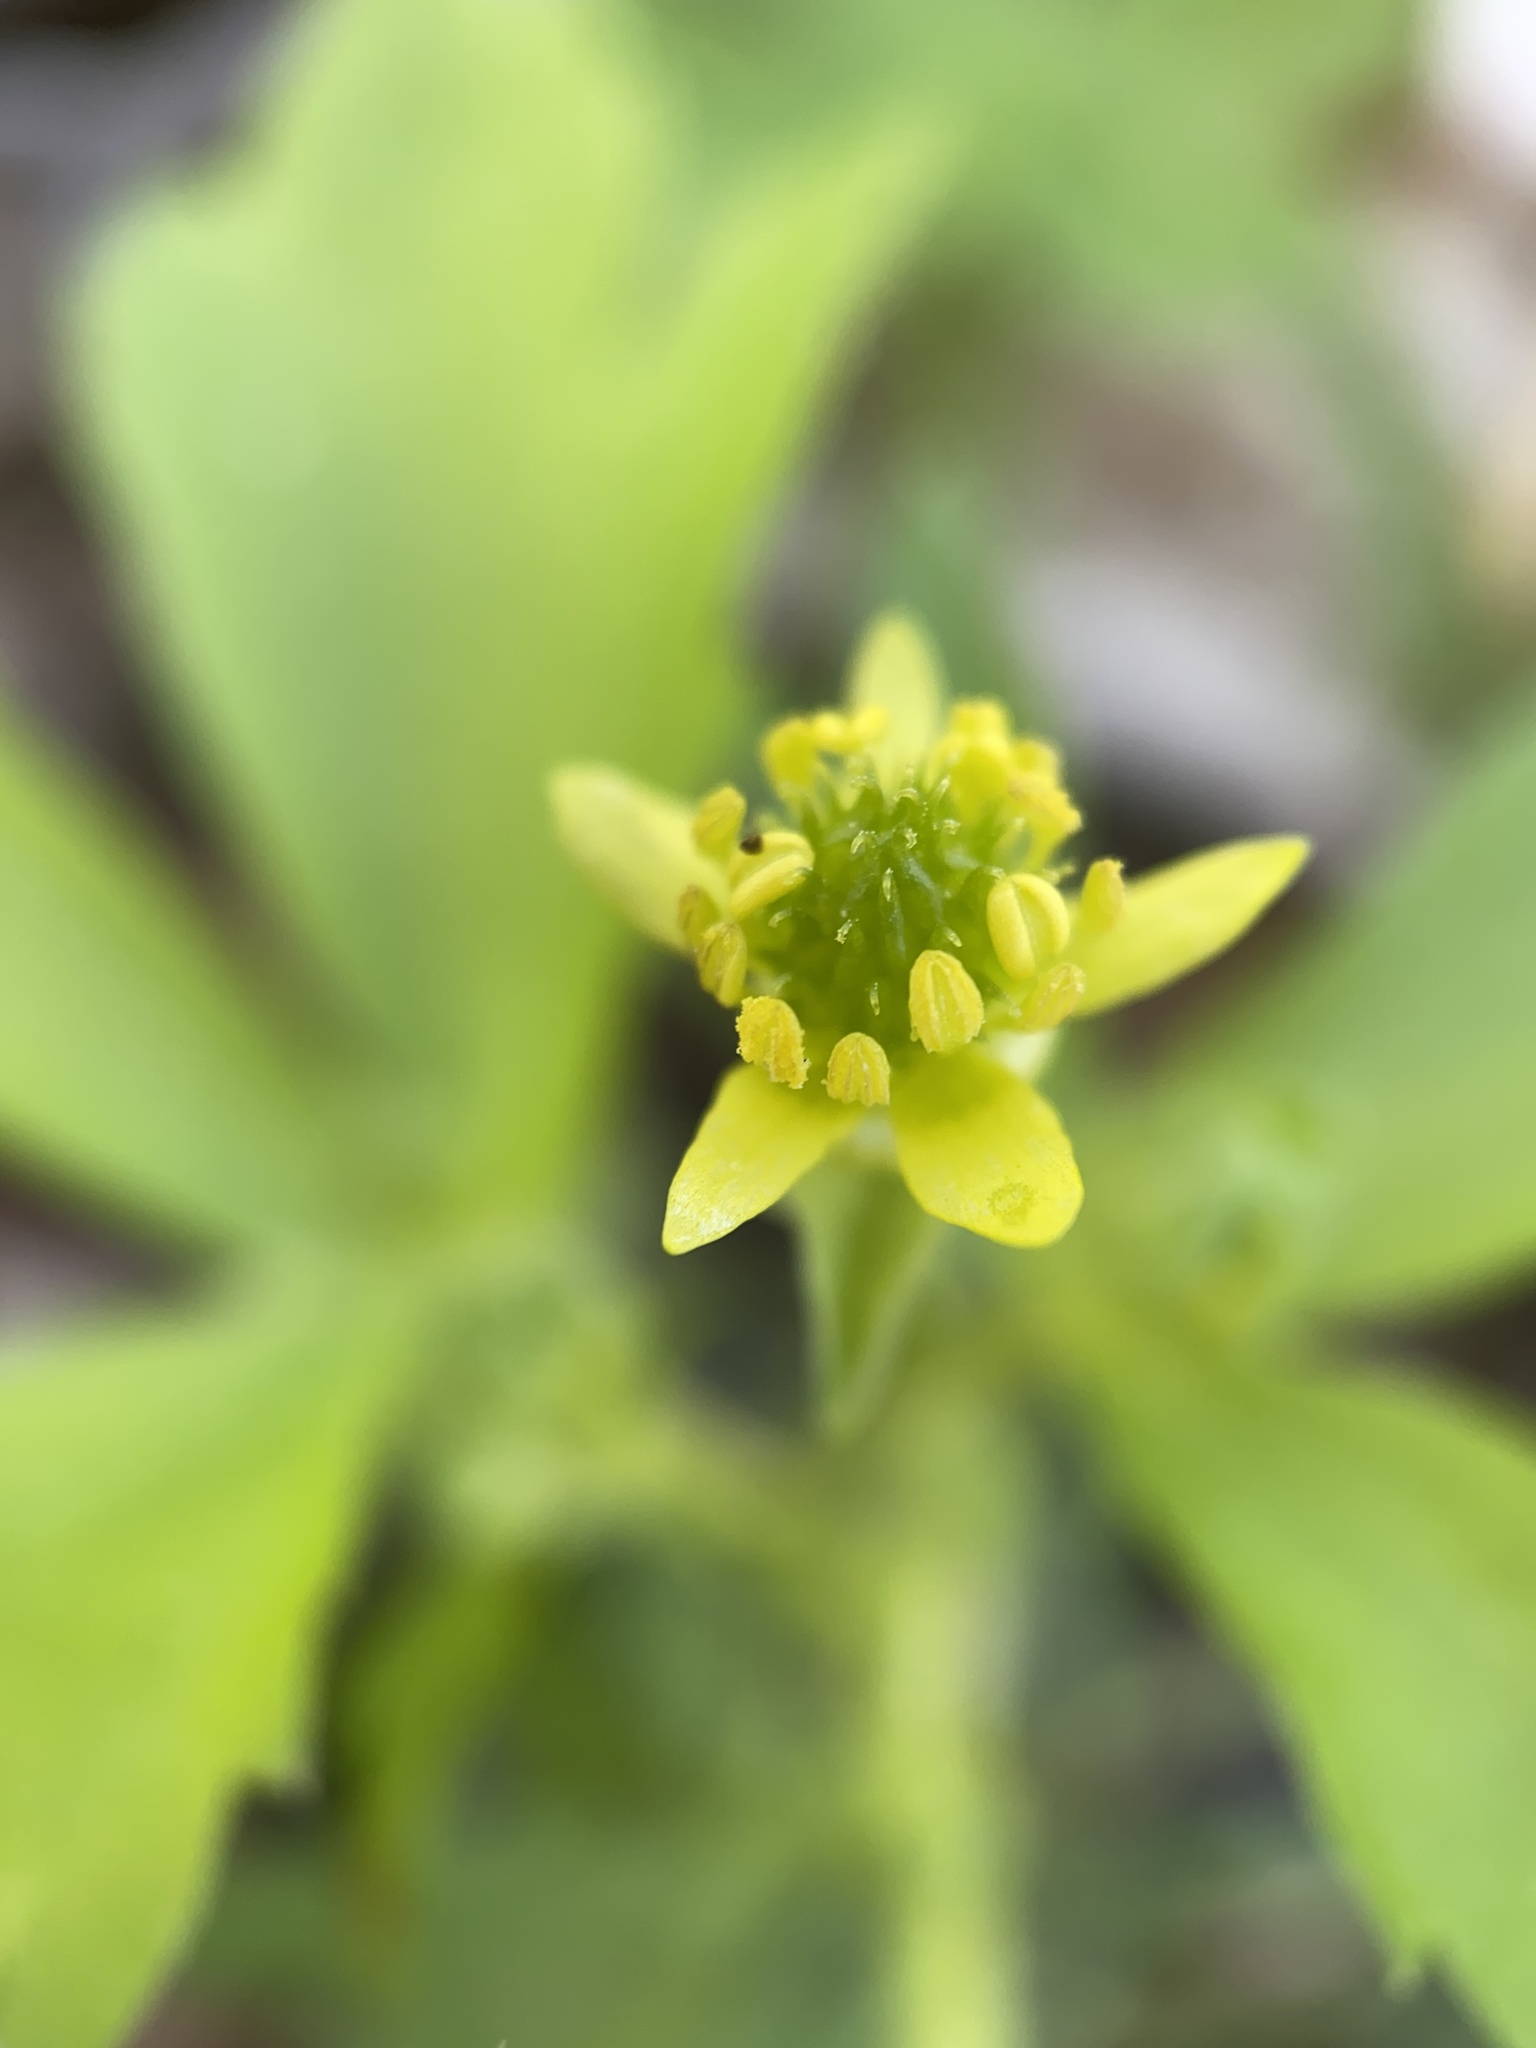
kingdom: Plantae
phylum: Tracheophyta
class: Magnoliopsida
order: Ranunculales
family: Ranunculaceae
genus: Ranunculus
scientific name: Ranunculus recurvatus
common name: Blisterwort
